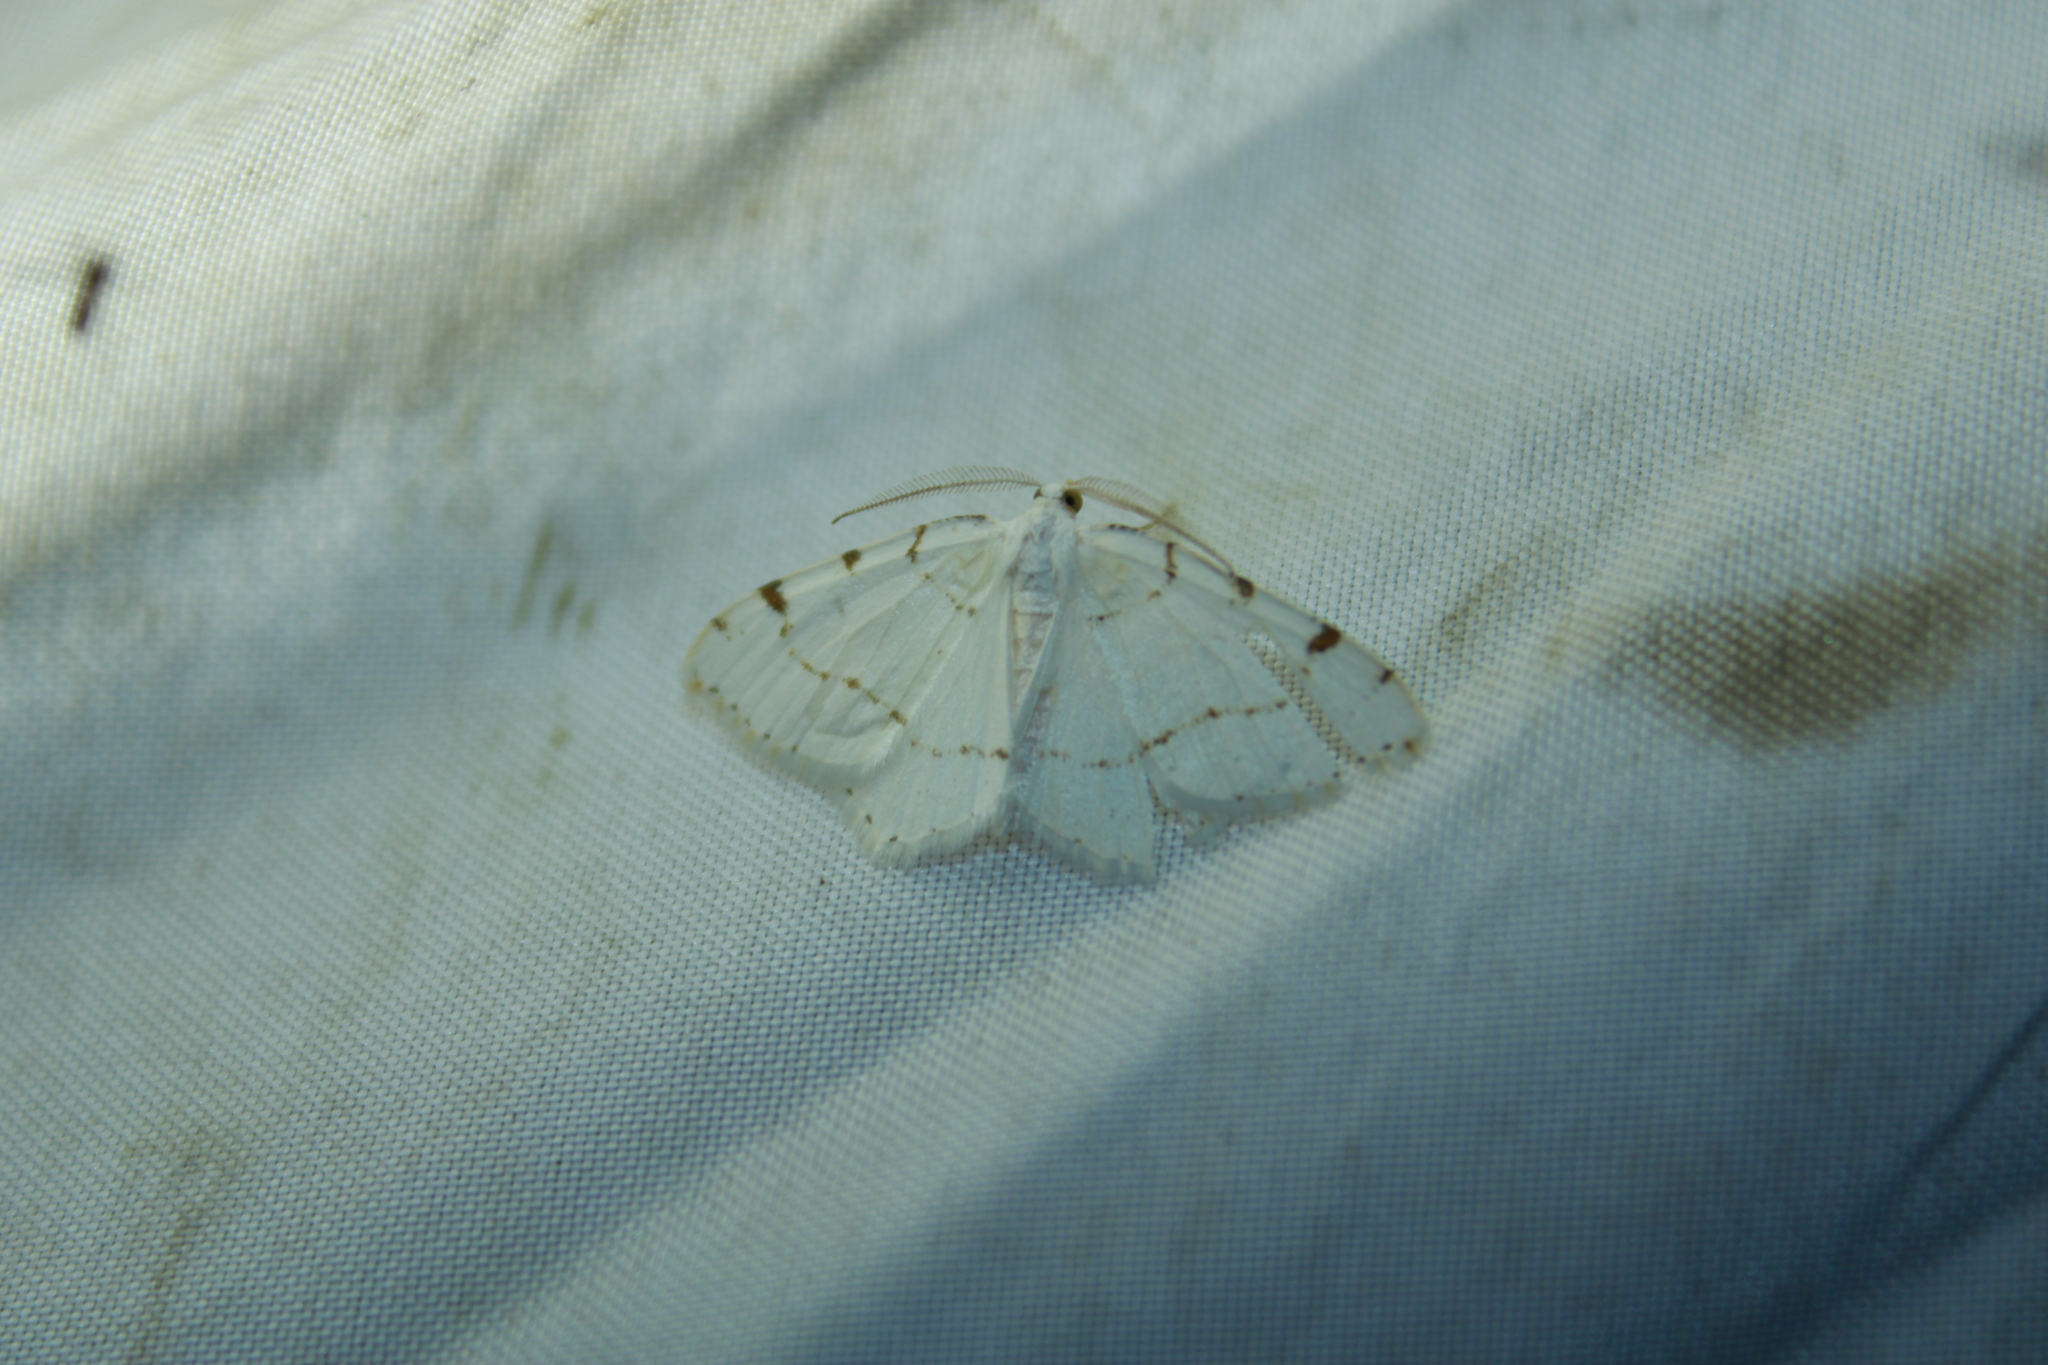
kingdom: Animalia
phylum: Arthropoda
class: Insecta
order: Lepidoptera
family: Geometridae
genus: Macaria
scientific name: Macaria pustularia
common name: Lesser maple spanworm moth
